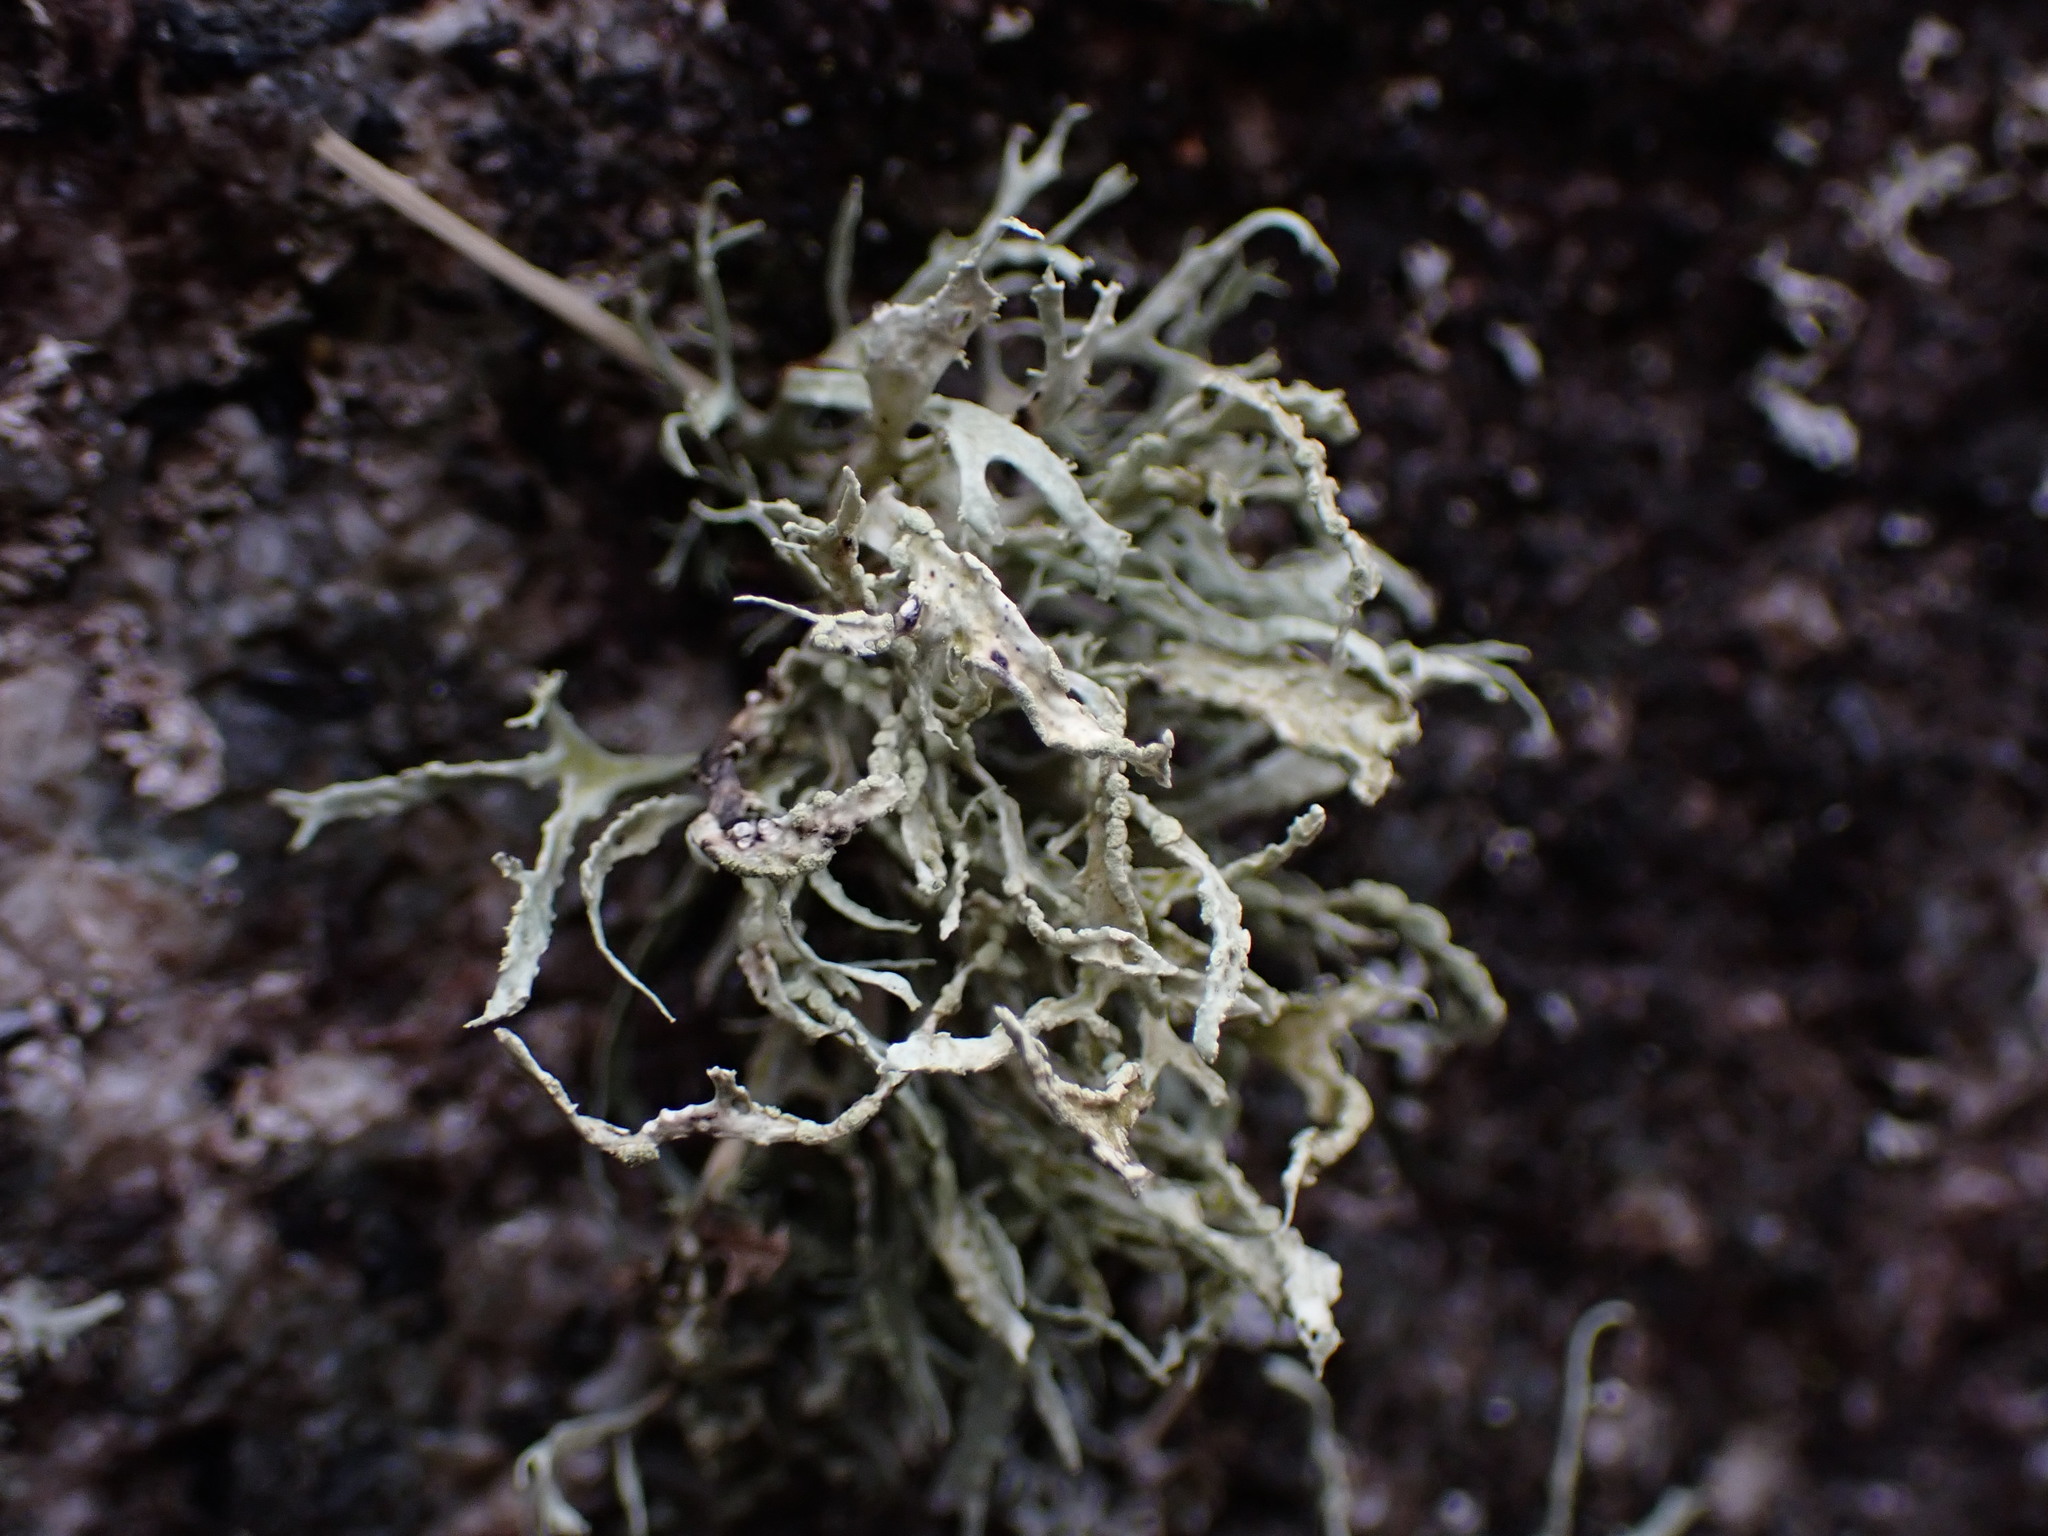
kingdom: Fungi
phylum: Ascomycota
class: Lecanoromycetes
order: Lecanorales
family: Ramalinaceae
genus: Ramalina
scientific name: Ramalina farinacea
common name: Farinose cartilage lichen
